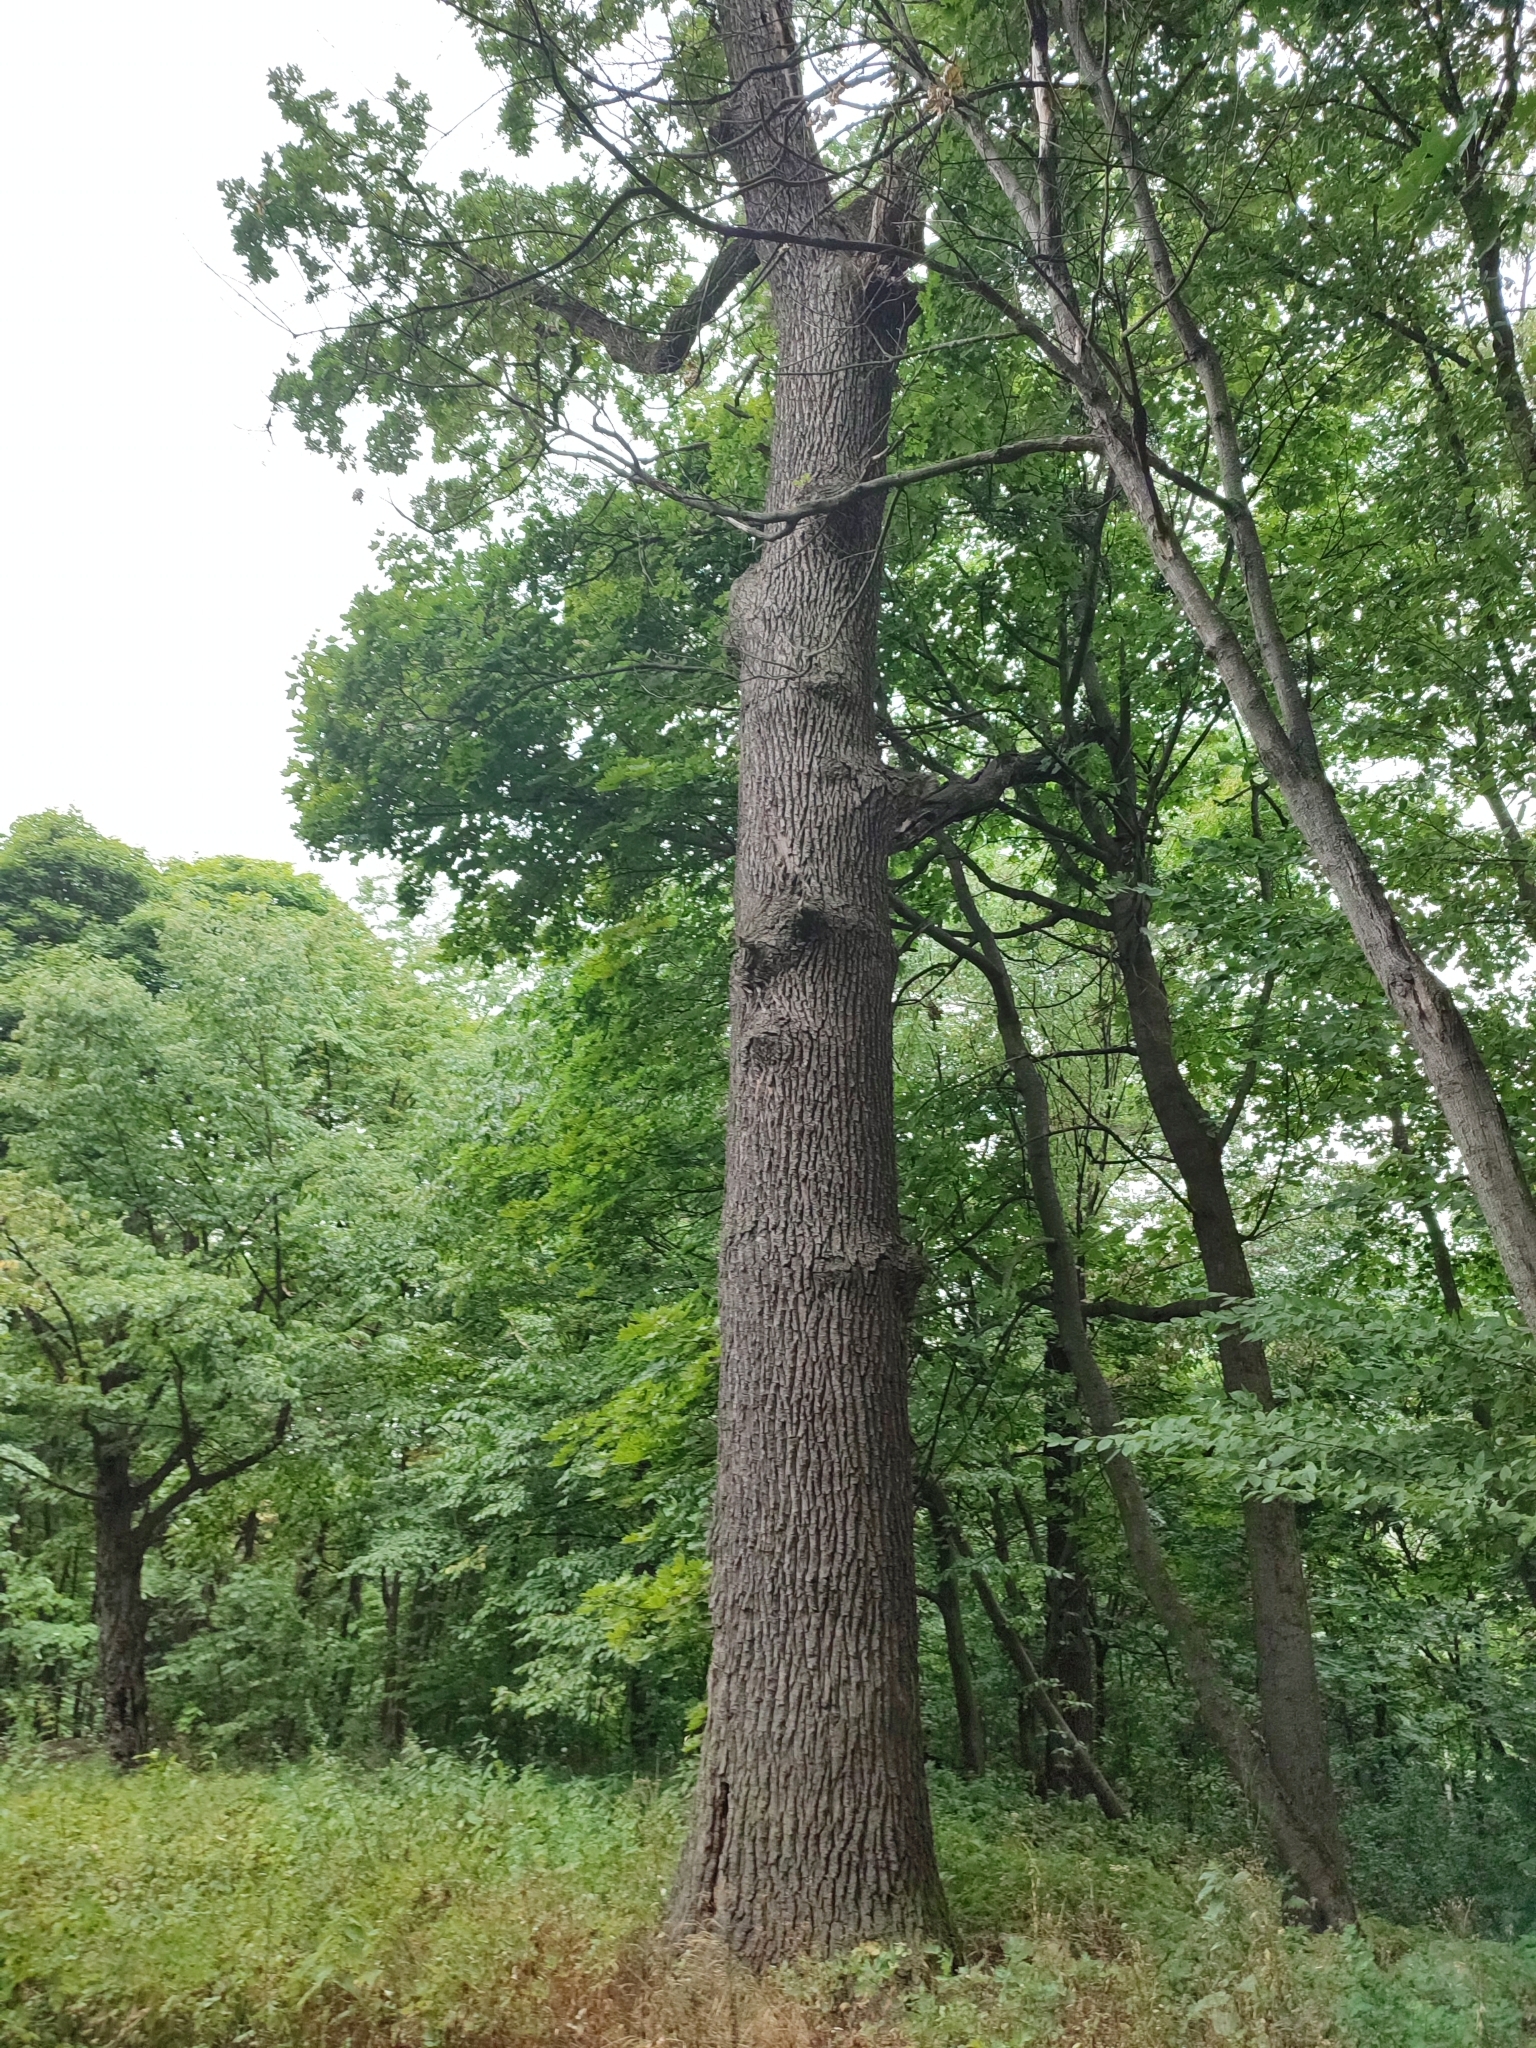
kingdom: Plantae
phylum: Tracheophyta
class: Magnoliopsida
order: Fagales
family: Fagaceae
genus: Quercus
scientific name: Quercus robur
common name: Pedunculate oak
